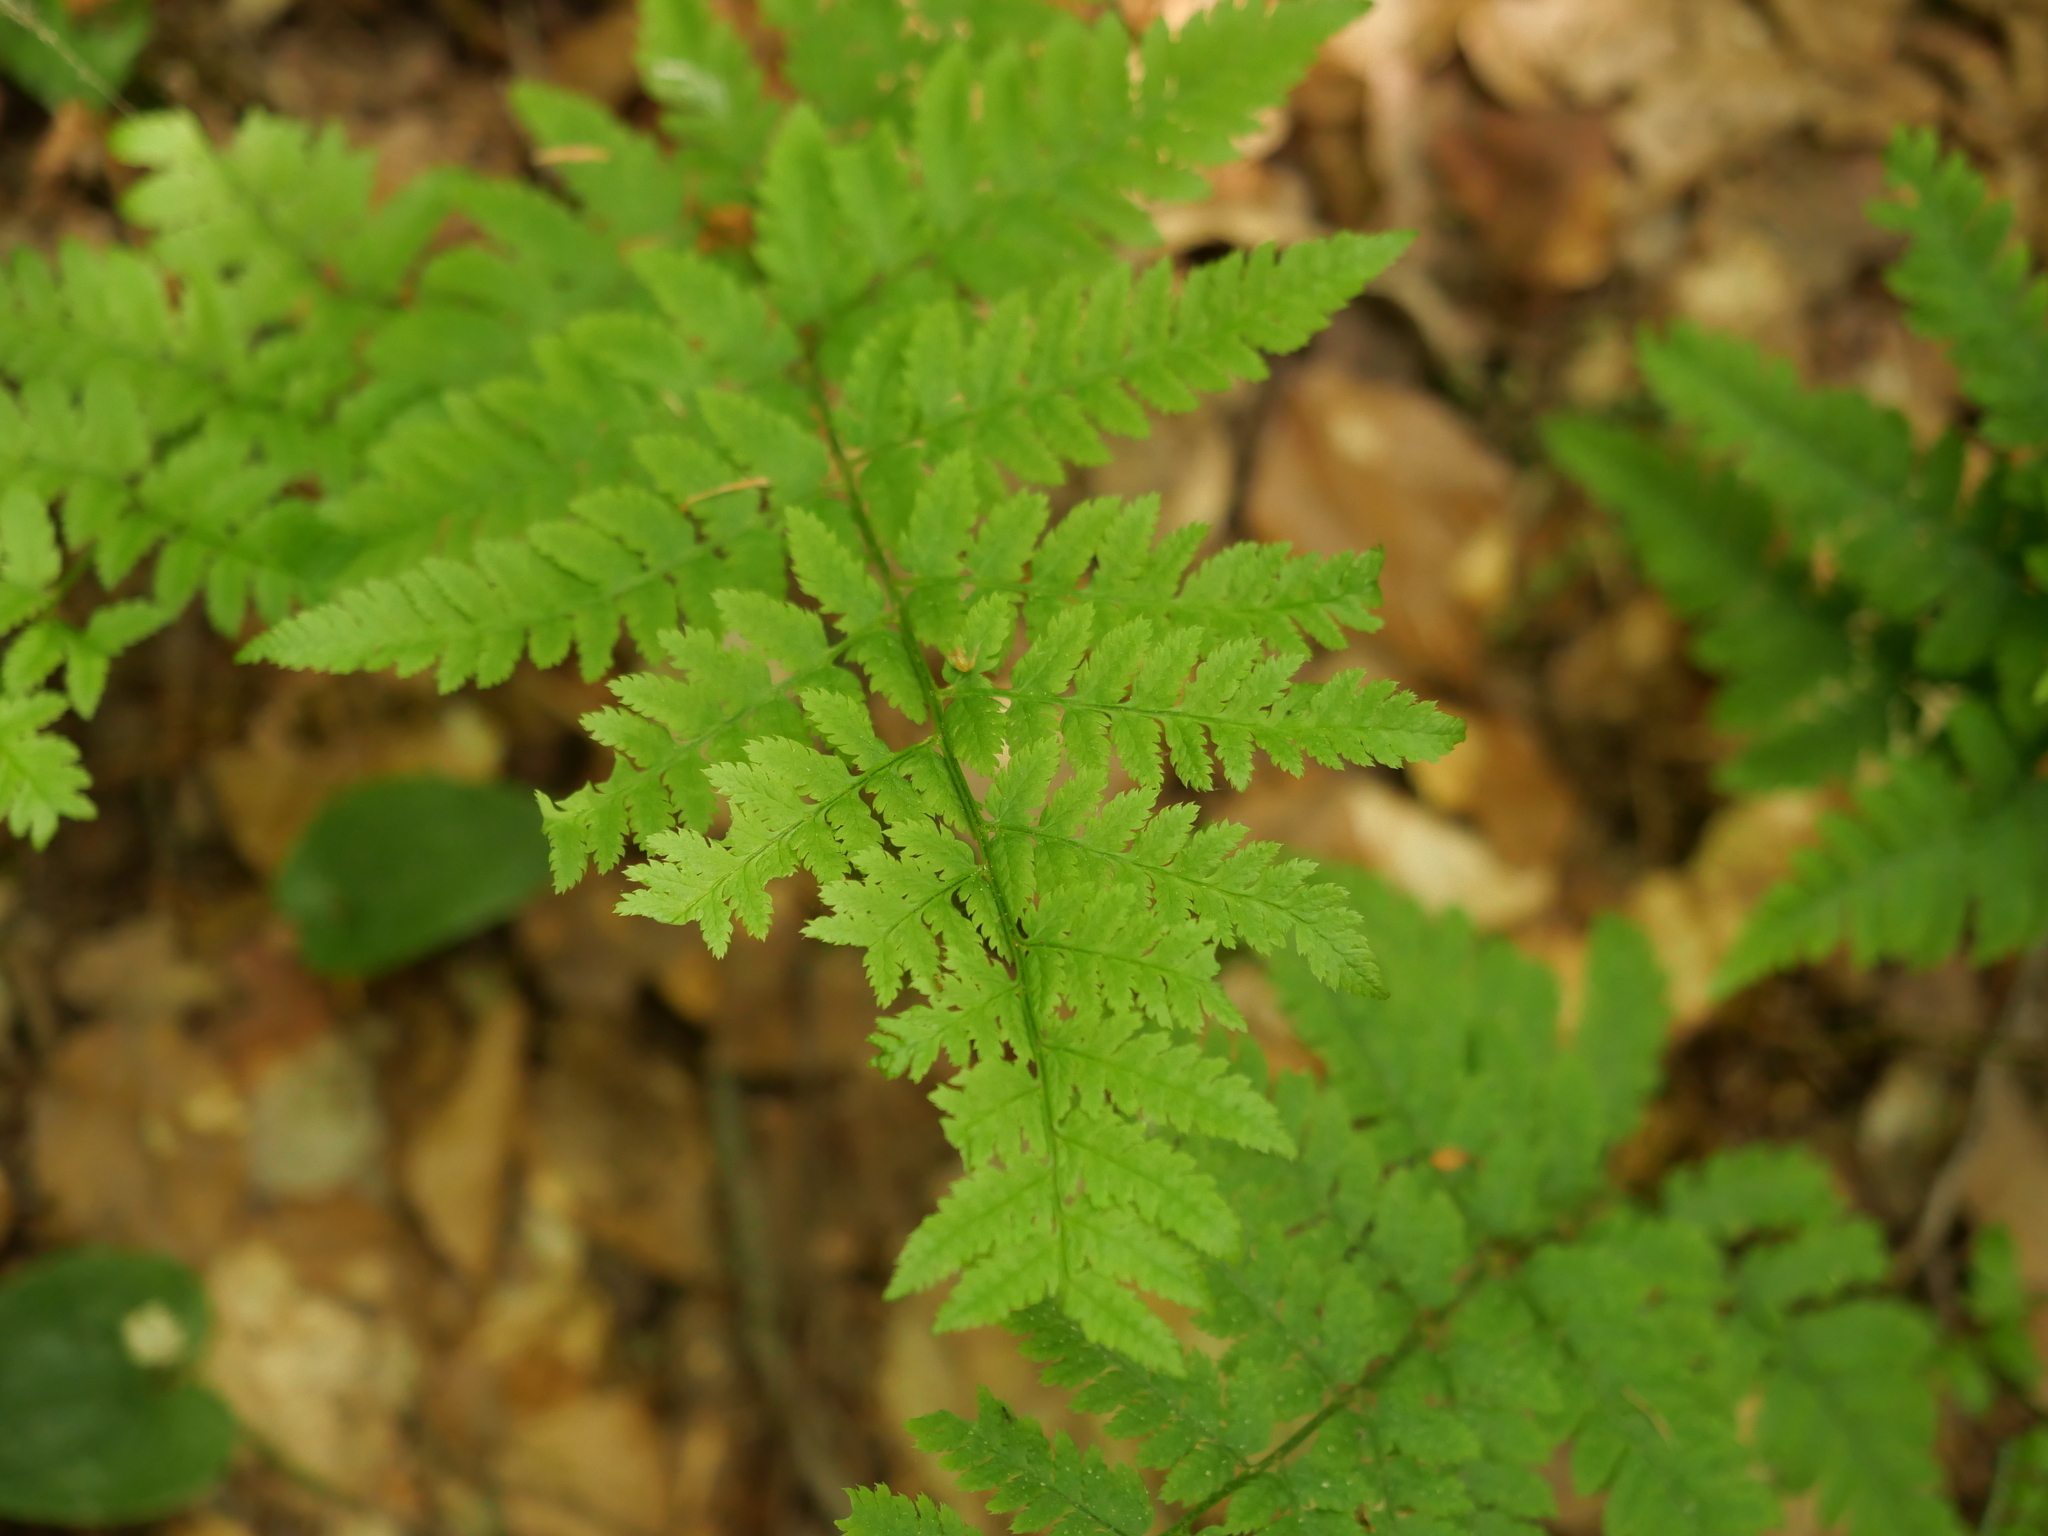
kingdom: Plantae
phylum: Tracheophyta
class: Polypodiopsida
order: Polypodiales
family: Dryopteridaceae
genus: Dryopteris
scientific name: Dryopteris carthusiana
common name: Narrow buckler-fern
